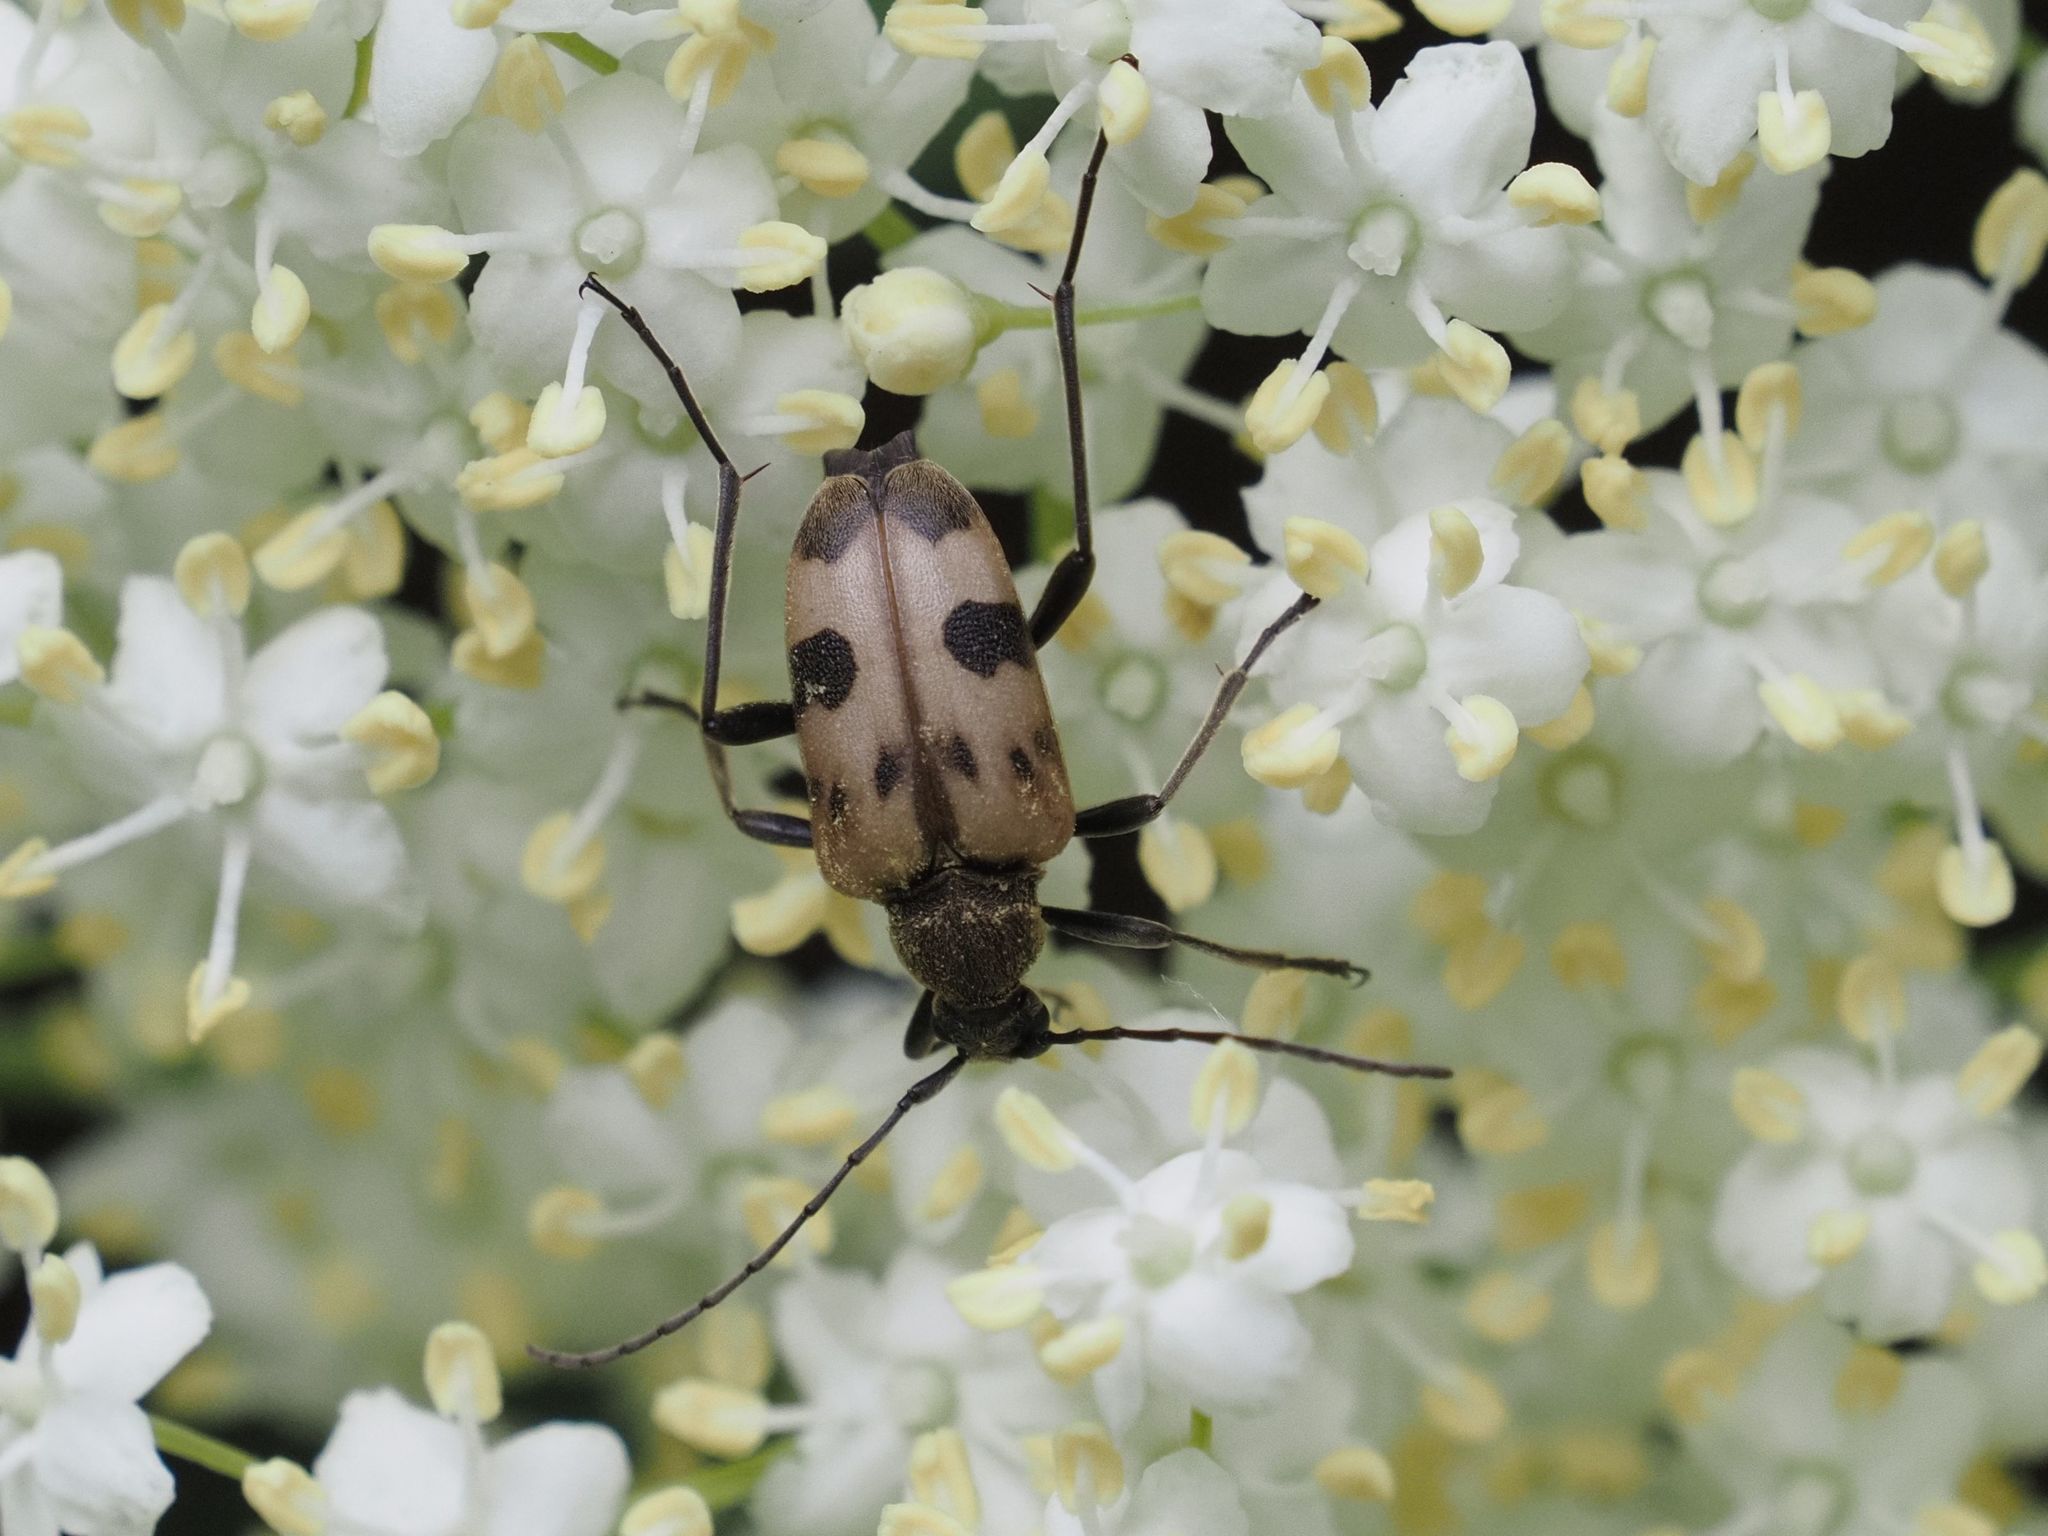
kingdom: Animalia
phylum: Arthropoda
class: Insecta
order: Coleoptera
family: Cerambycidae
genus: Pachytodes
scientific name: Pachytodes cerambyciformis
